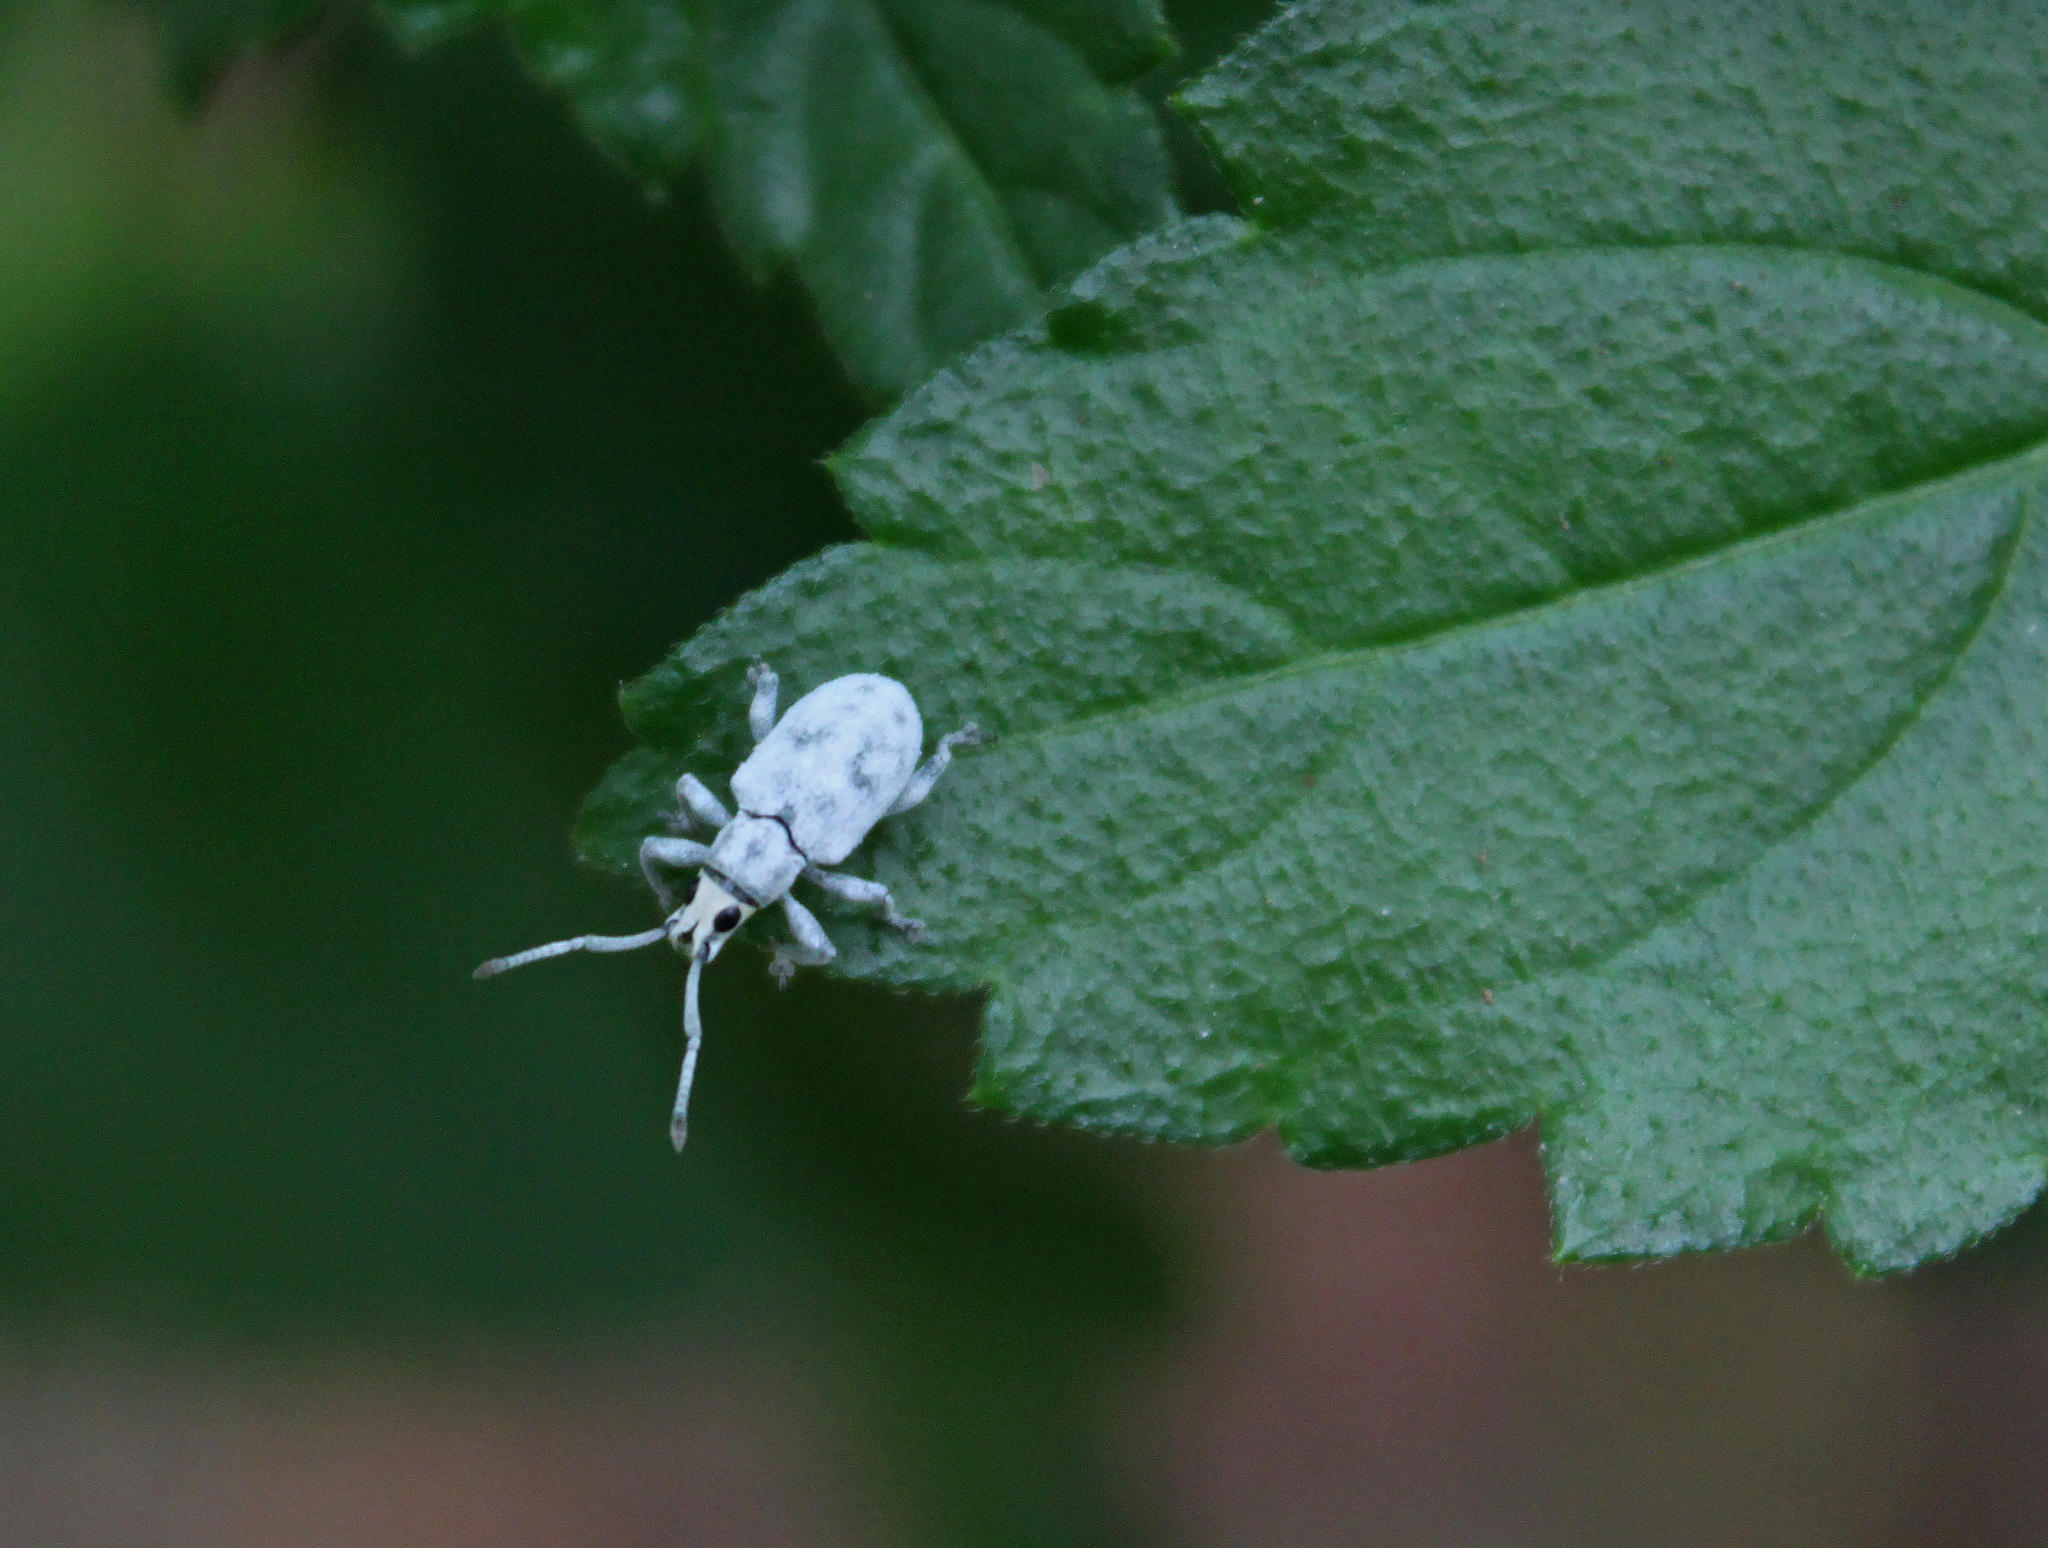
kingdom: Animalia
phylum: Arthropoda
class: Insecta
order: Coleoptera
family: Curculionidae
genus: Myllocerus
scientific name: Myllocerus undecimpustulatus
